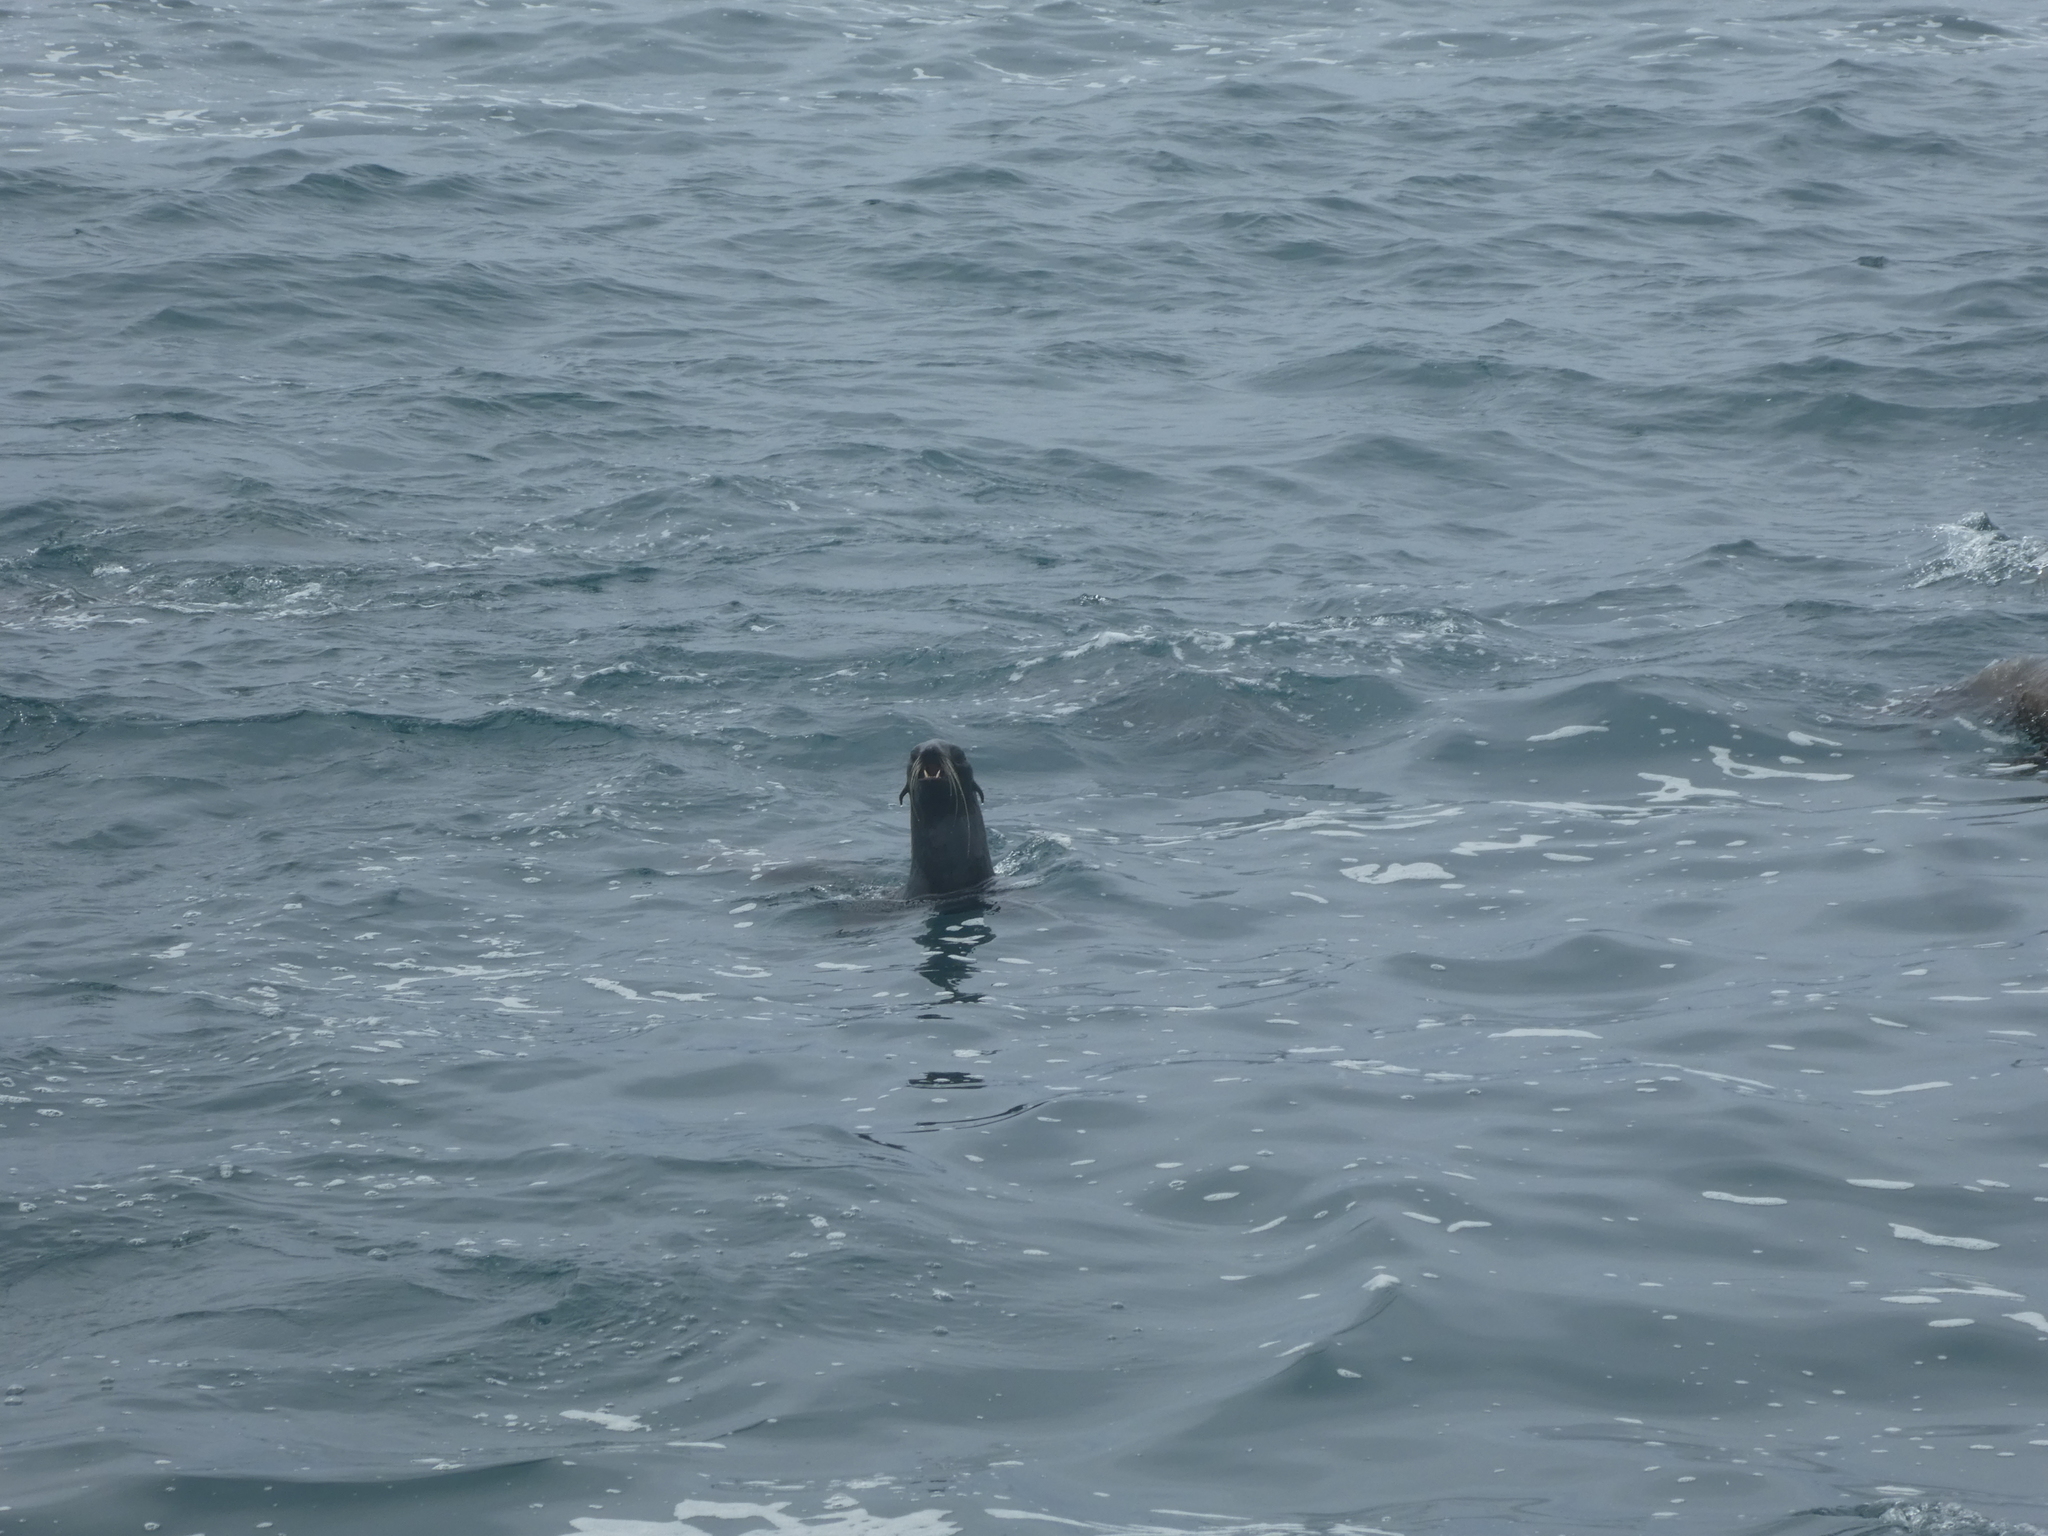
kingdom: Animalia
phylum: Chordata
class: Mammalia
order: Carnivora
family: Otariidae
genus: Callorhinus
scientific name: Callorhinus ursinus
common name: Northern fur seal
